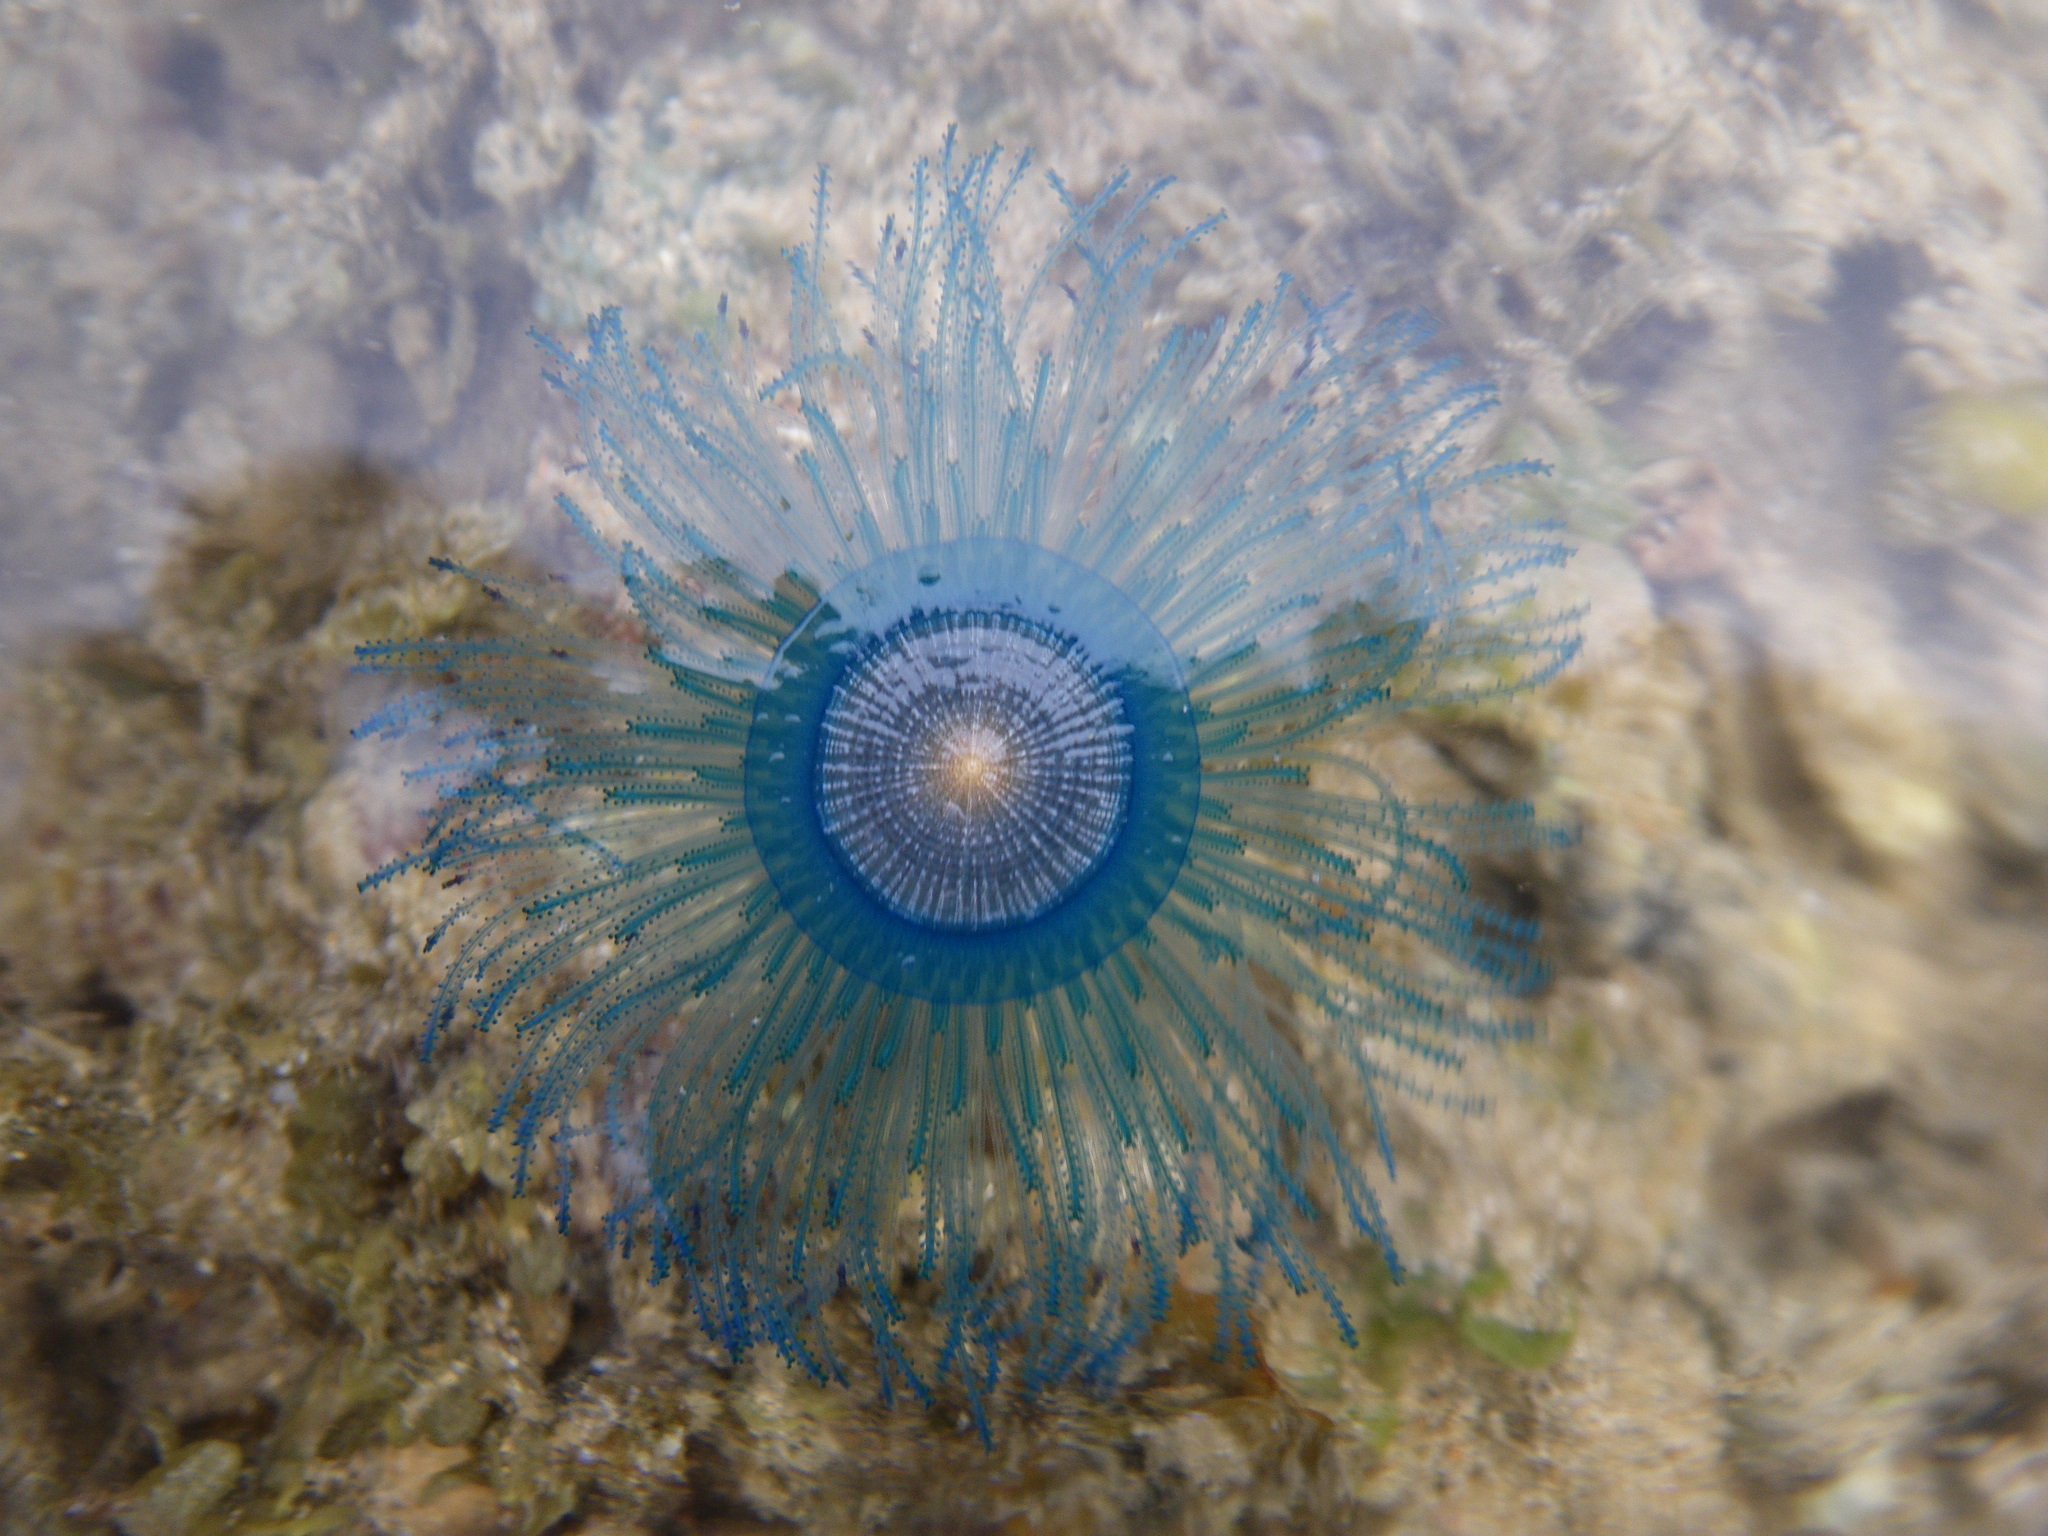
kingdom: Animalia
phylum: Cnidaria
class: Hydrozoa
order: Anthoathecata
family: Porpitidae
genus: Porpita
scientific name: Porpita porpita
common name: Blue button
